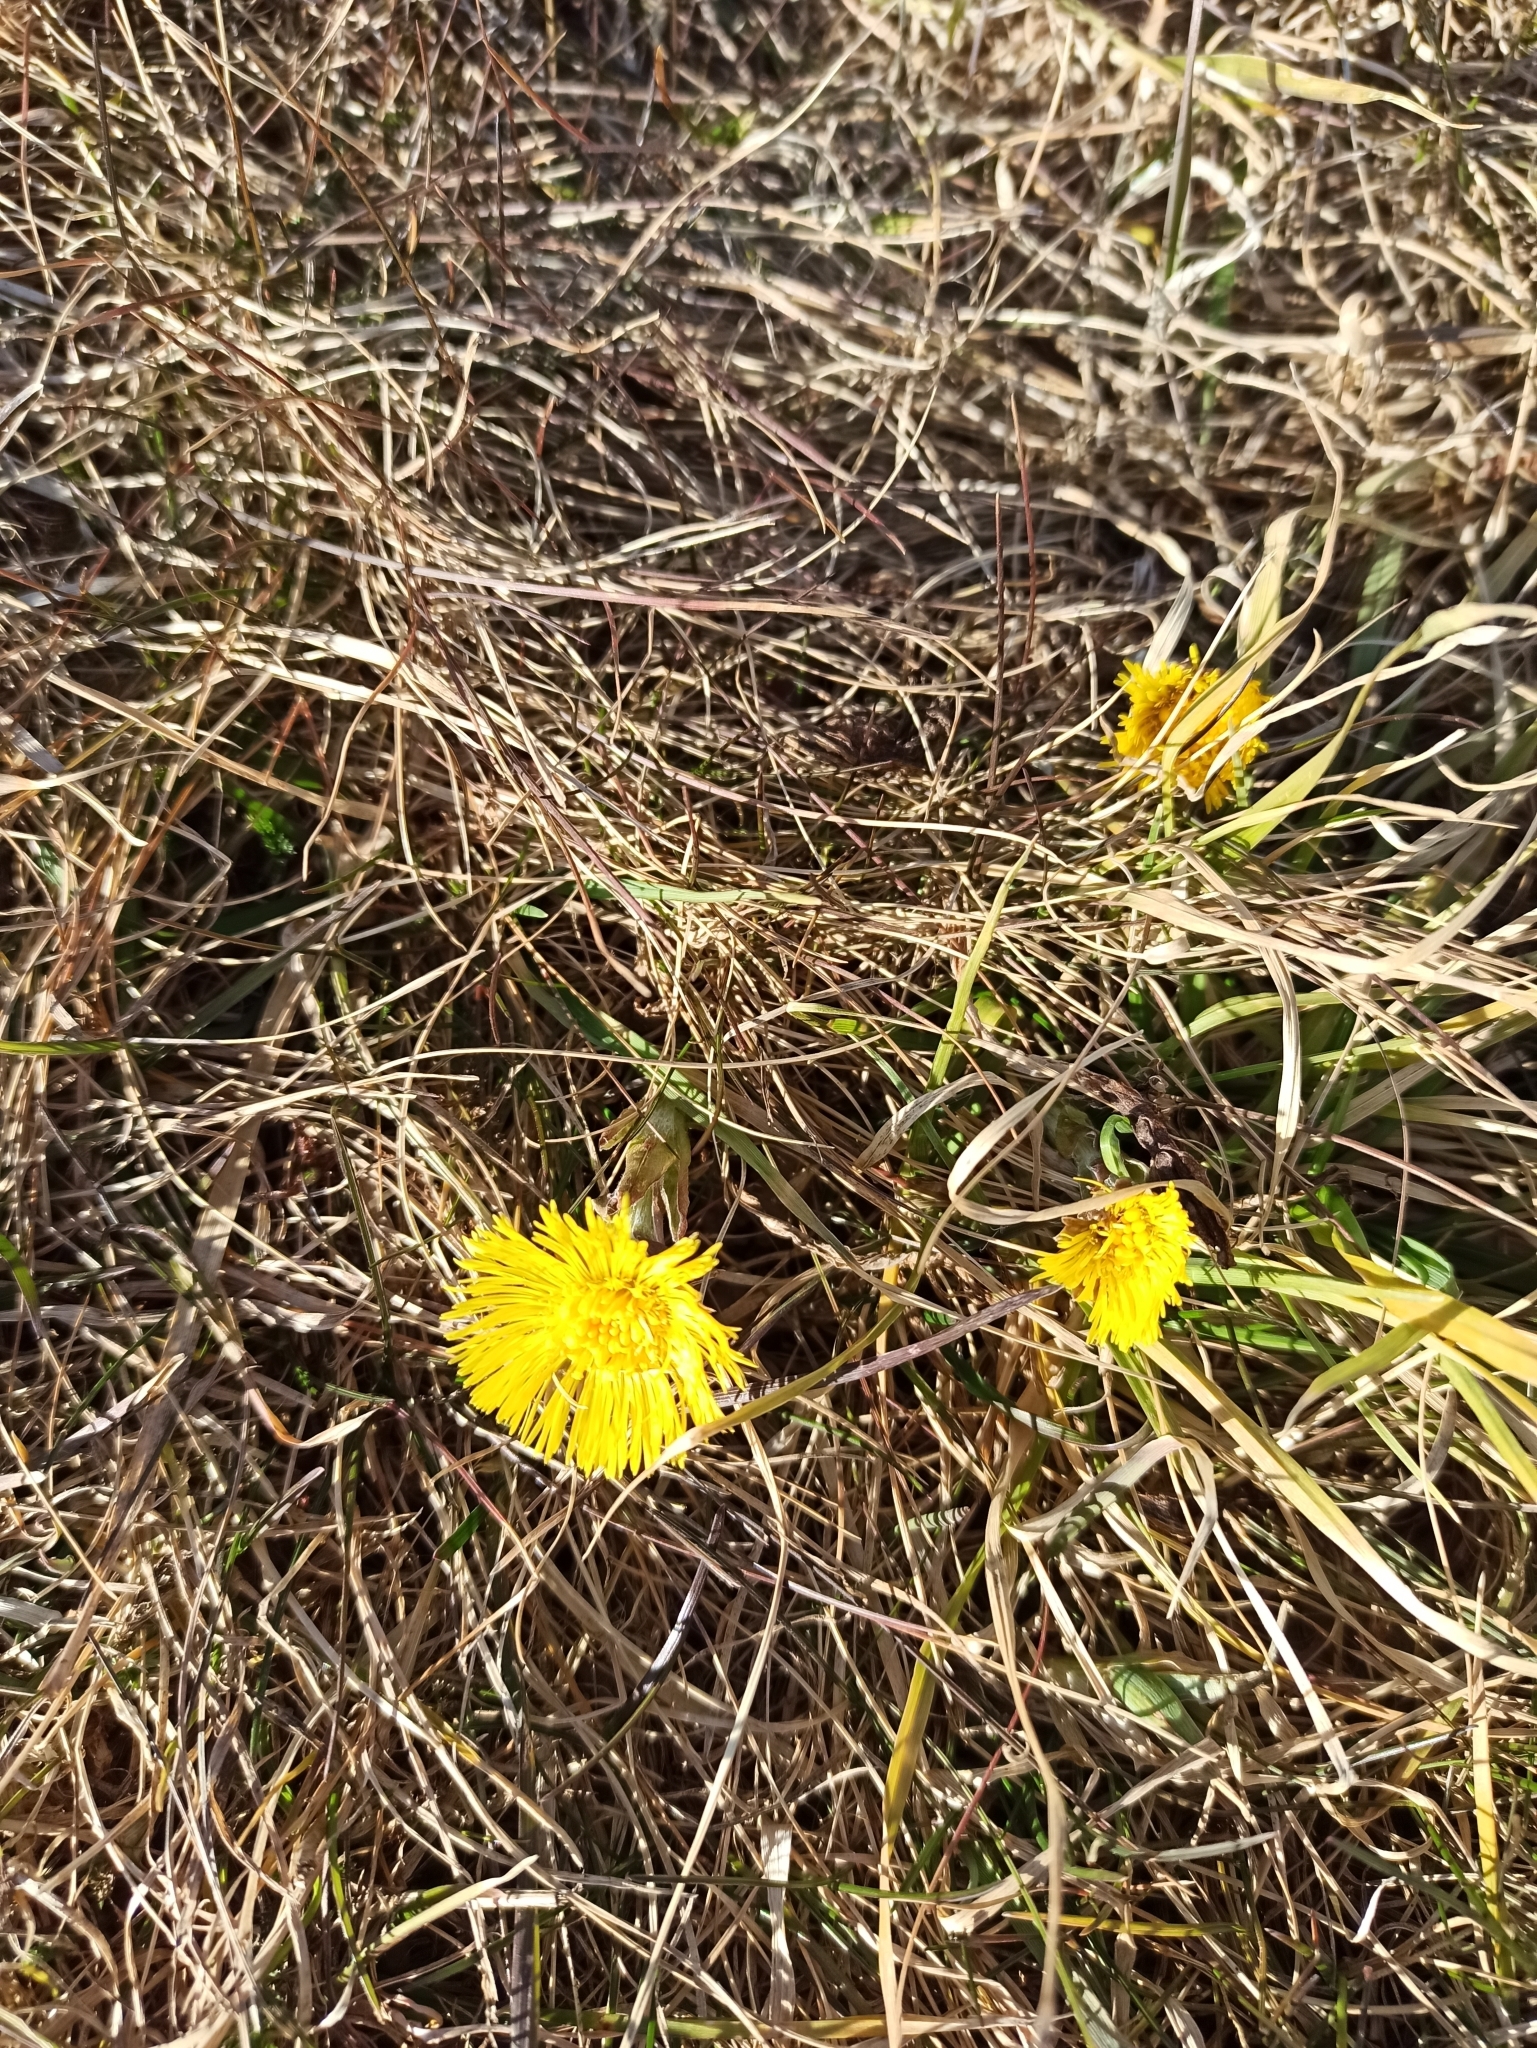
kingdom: Plantae
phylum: Tracheophyta
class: Magnoliopsida
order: Asterales
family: Asteraceae
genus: Tussilago
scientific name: Tussilago farfara
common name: Coltsfoot
